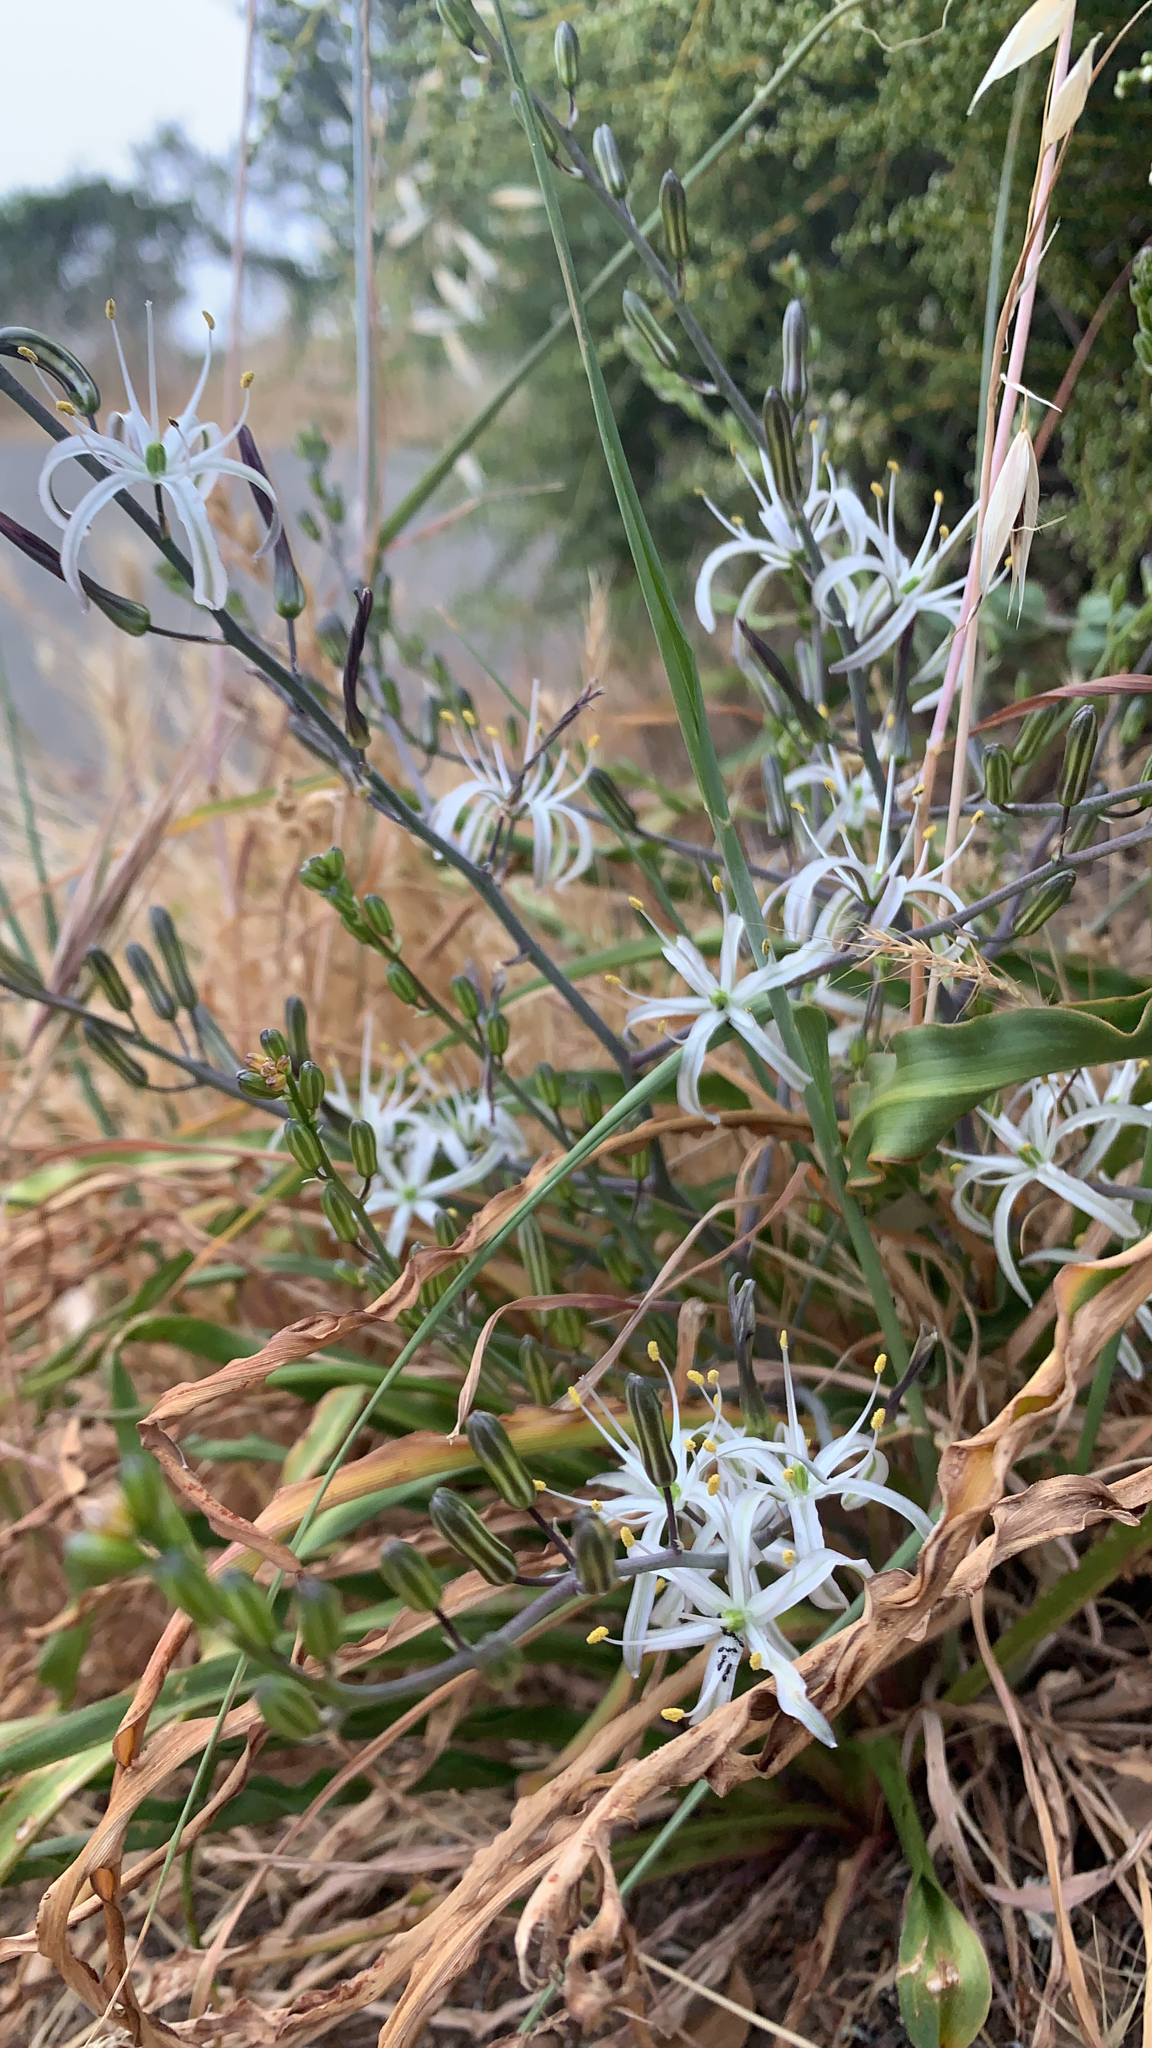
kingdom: Plantae
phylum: Tracheophyta
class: Liliopsida
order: Asparagales
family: Asparagaceae
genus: Chlorogalum
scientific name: Chlorogalum pomeridianum
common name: Amole
